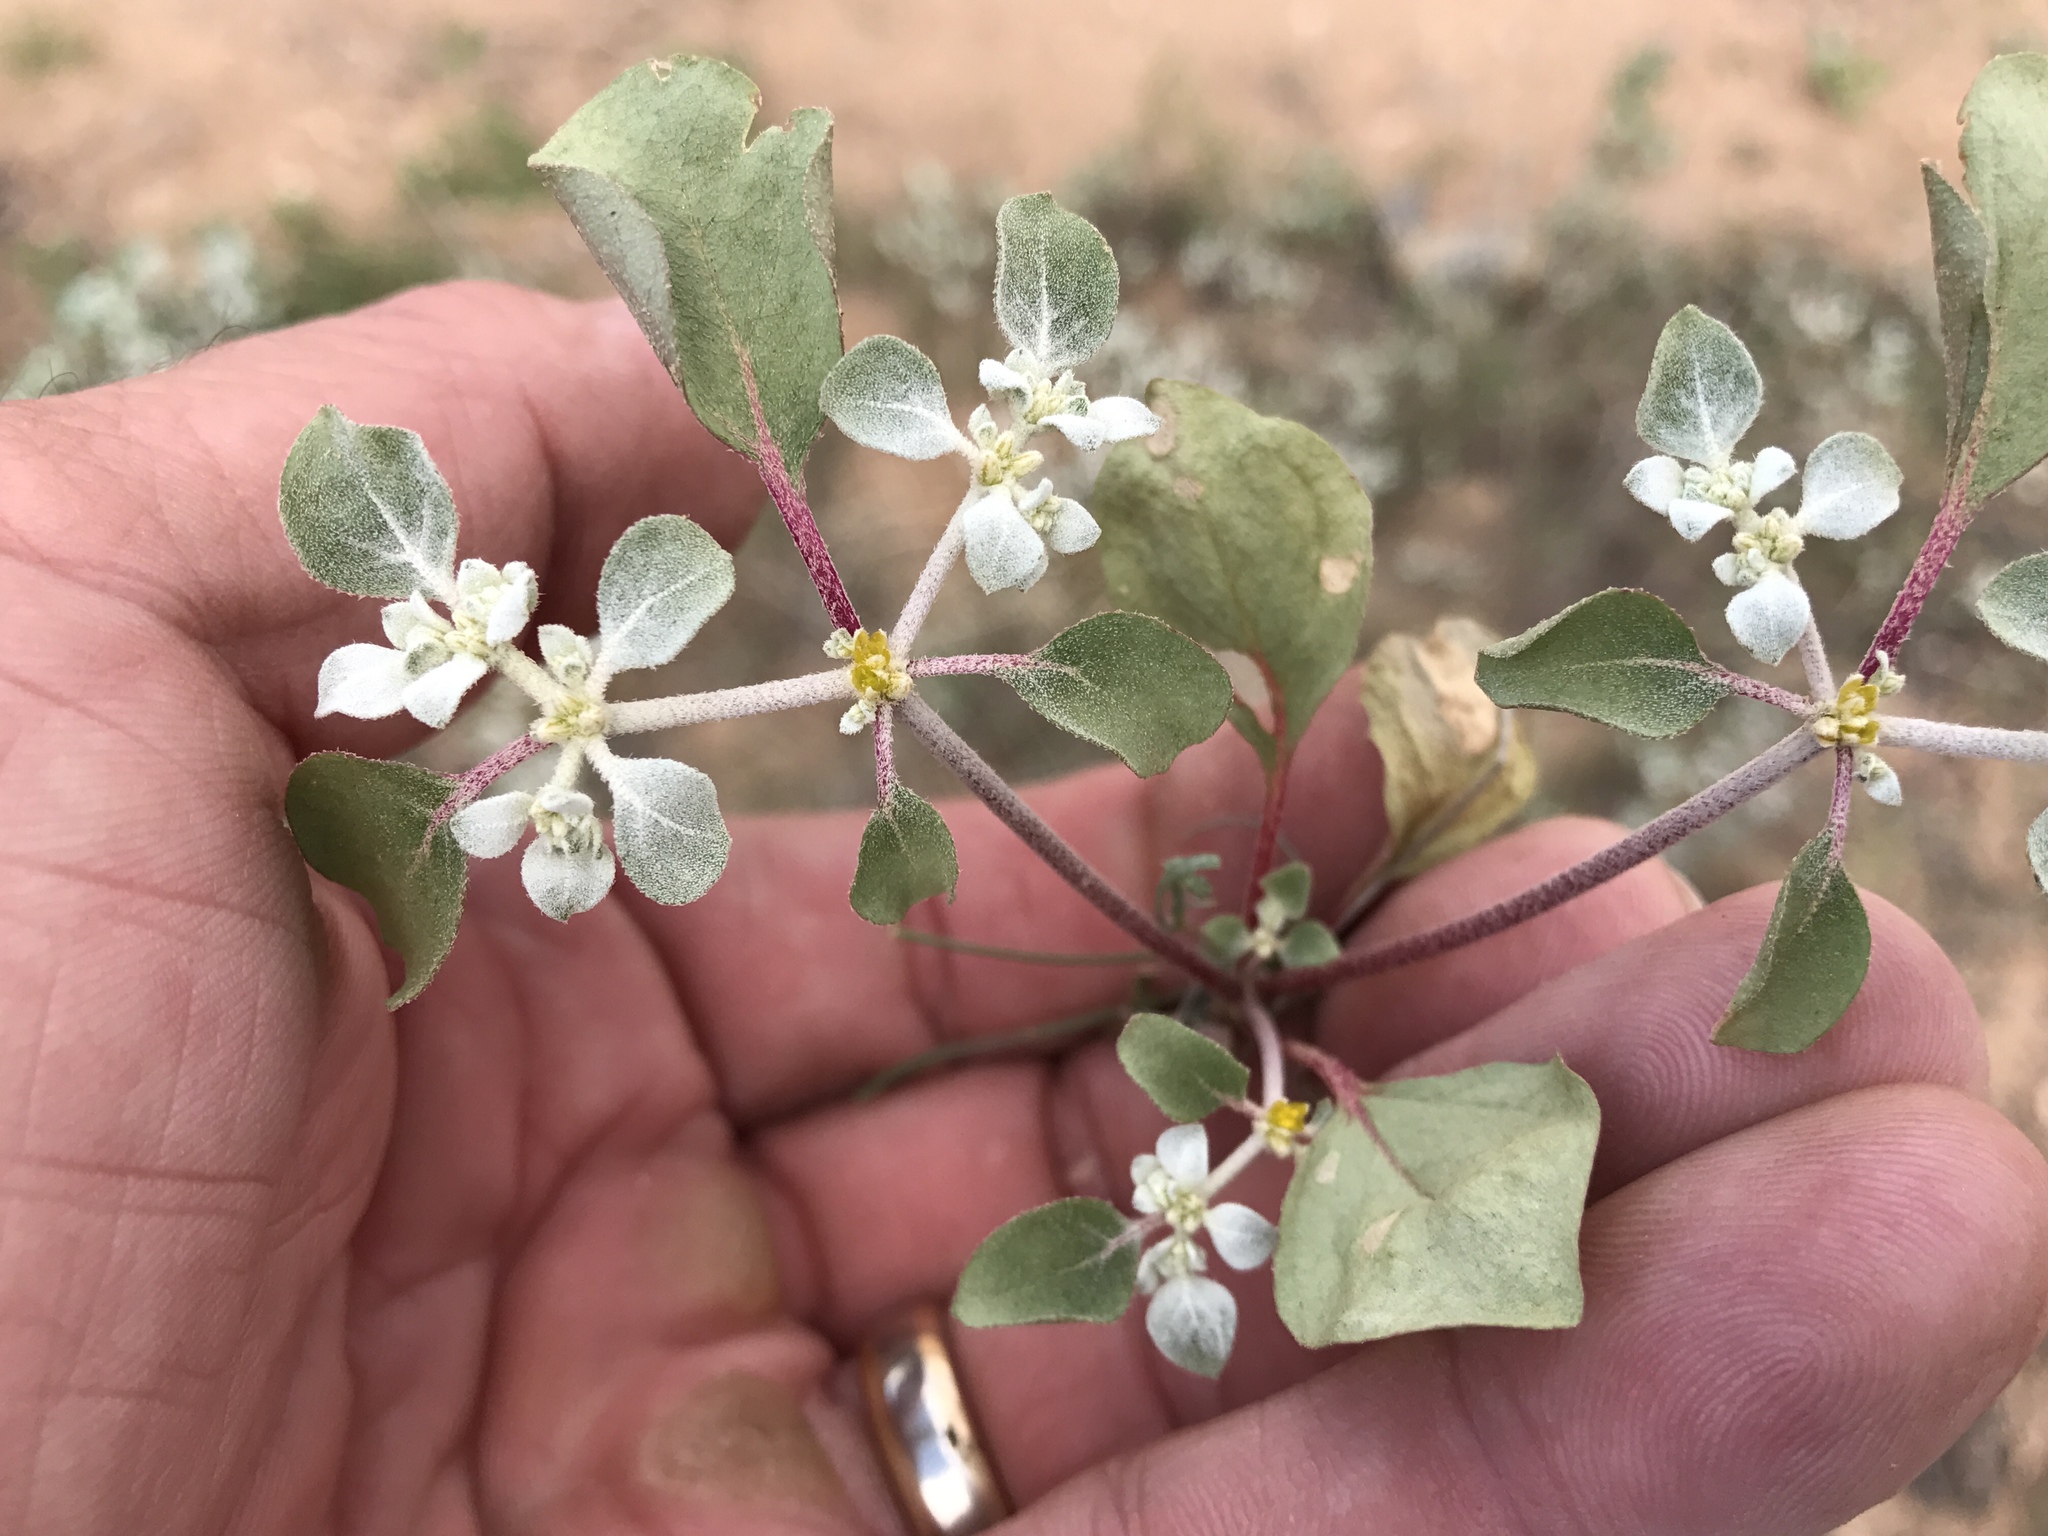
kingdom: Plantae
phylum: Tracheophyta
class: Magnoliopsida
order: Caryophyllales
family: Amaranthaceae
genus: Tidestromia
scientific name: Tidestromia lanuginosa
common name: Woolly tidestromia
